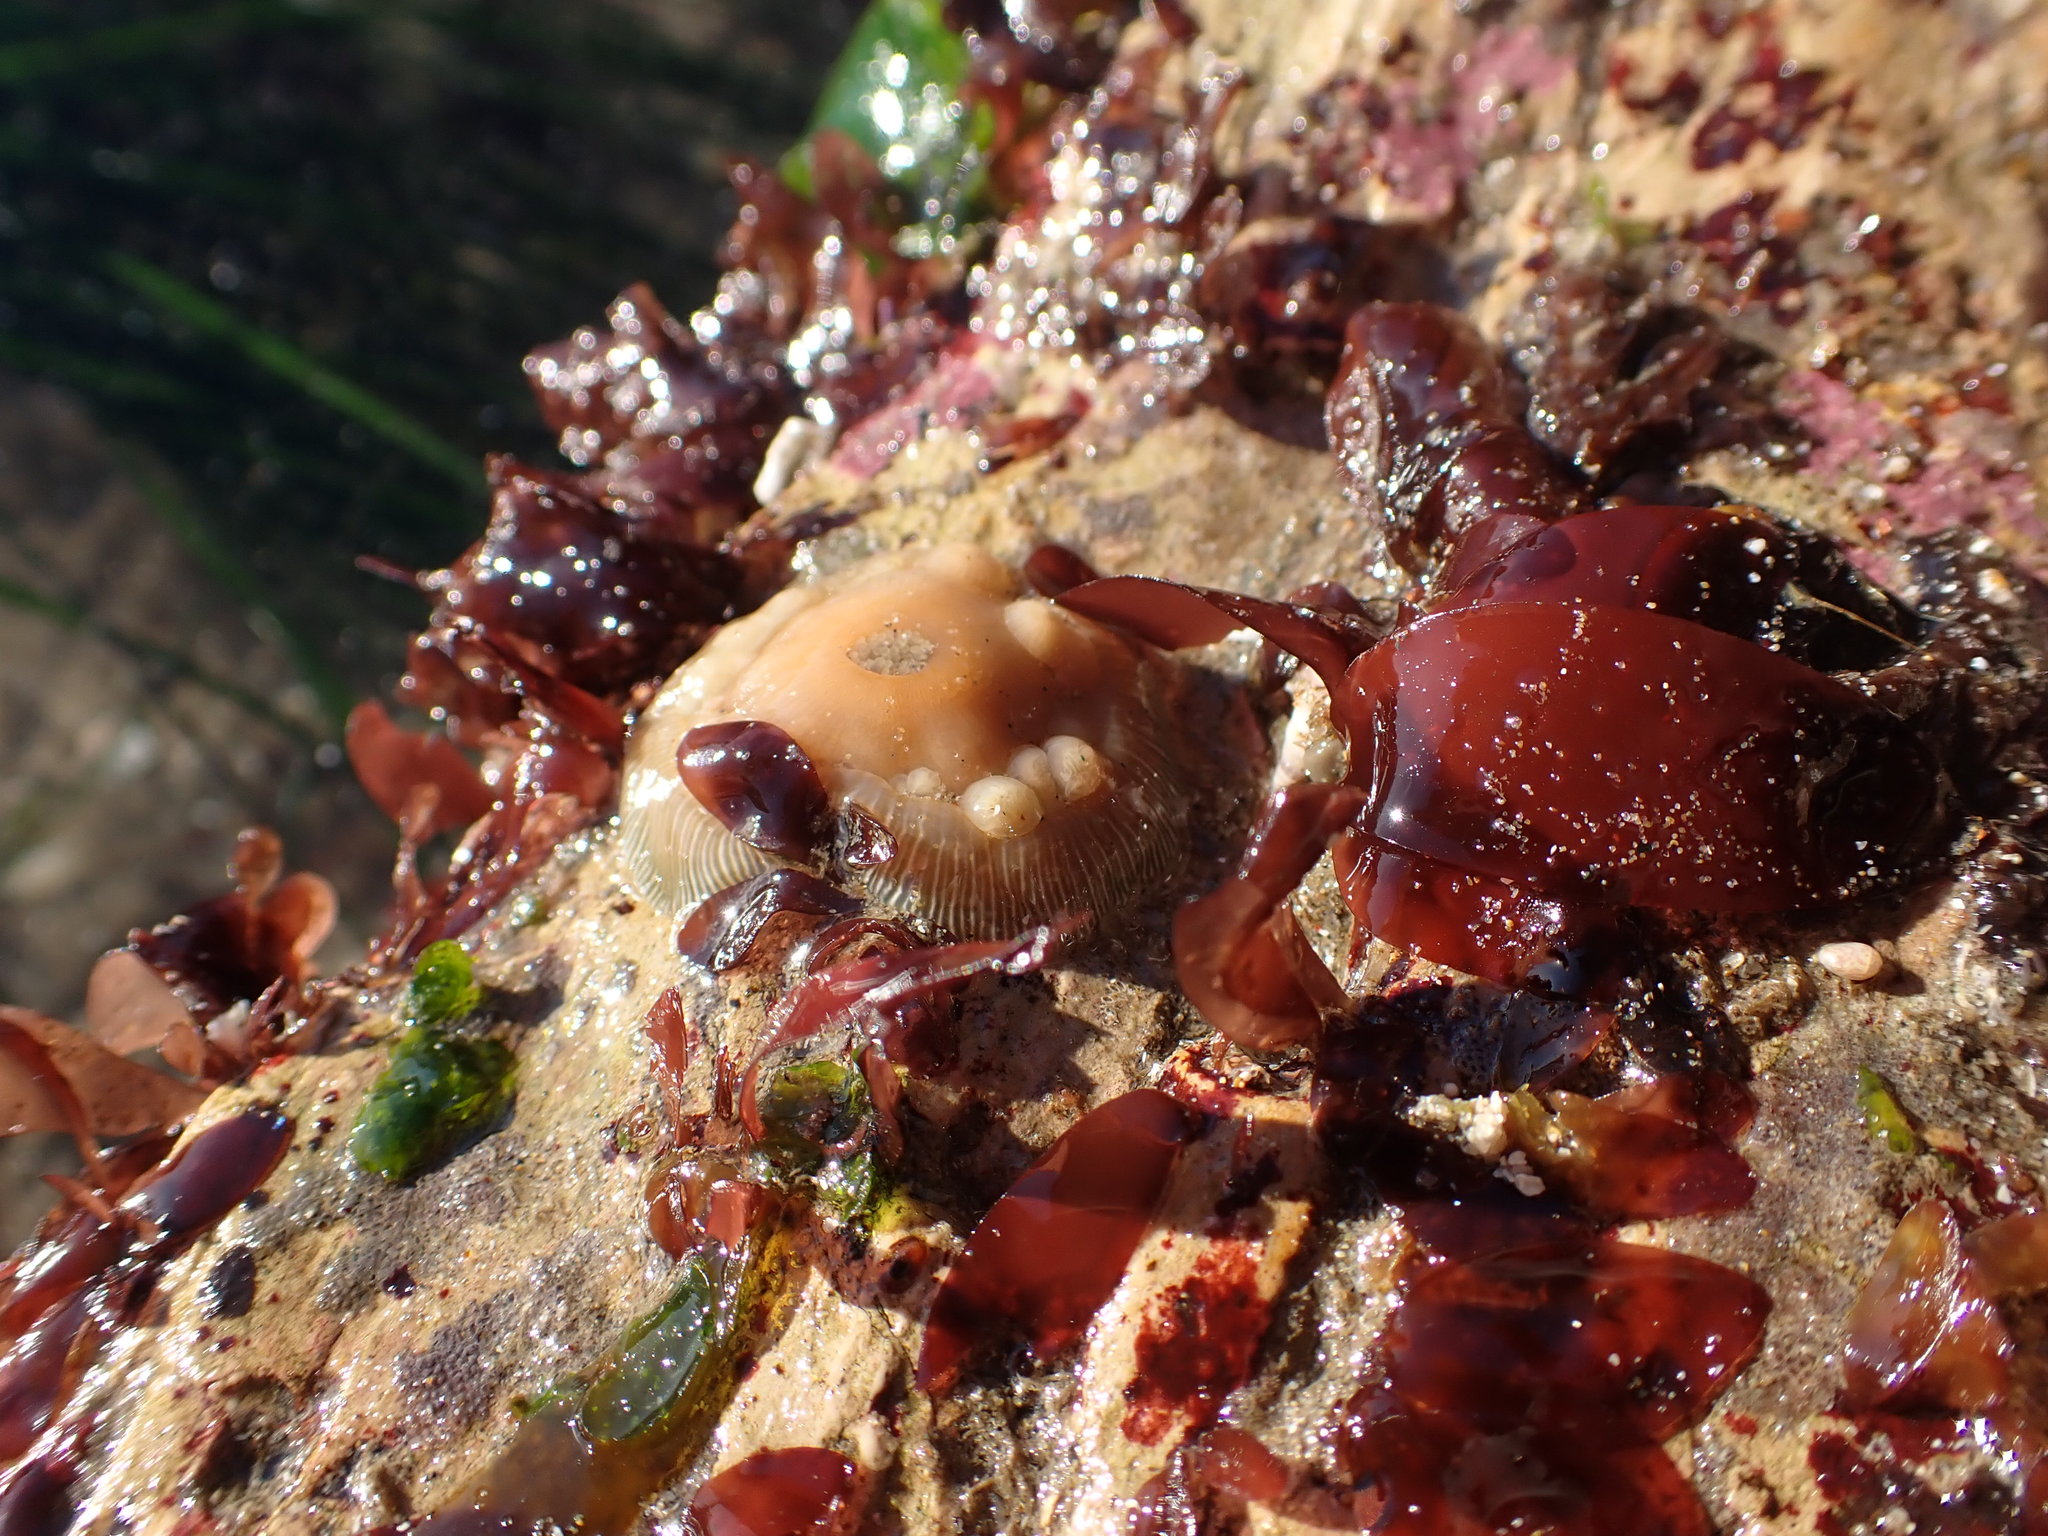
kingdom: Animalia
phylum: Cnidaria
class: Anthozoa
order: Actiniaria
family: Actiniidae
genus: Epiactis
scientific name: Epiactis prolifera
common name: Brooding anemone
